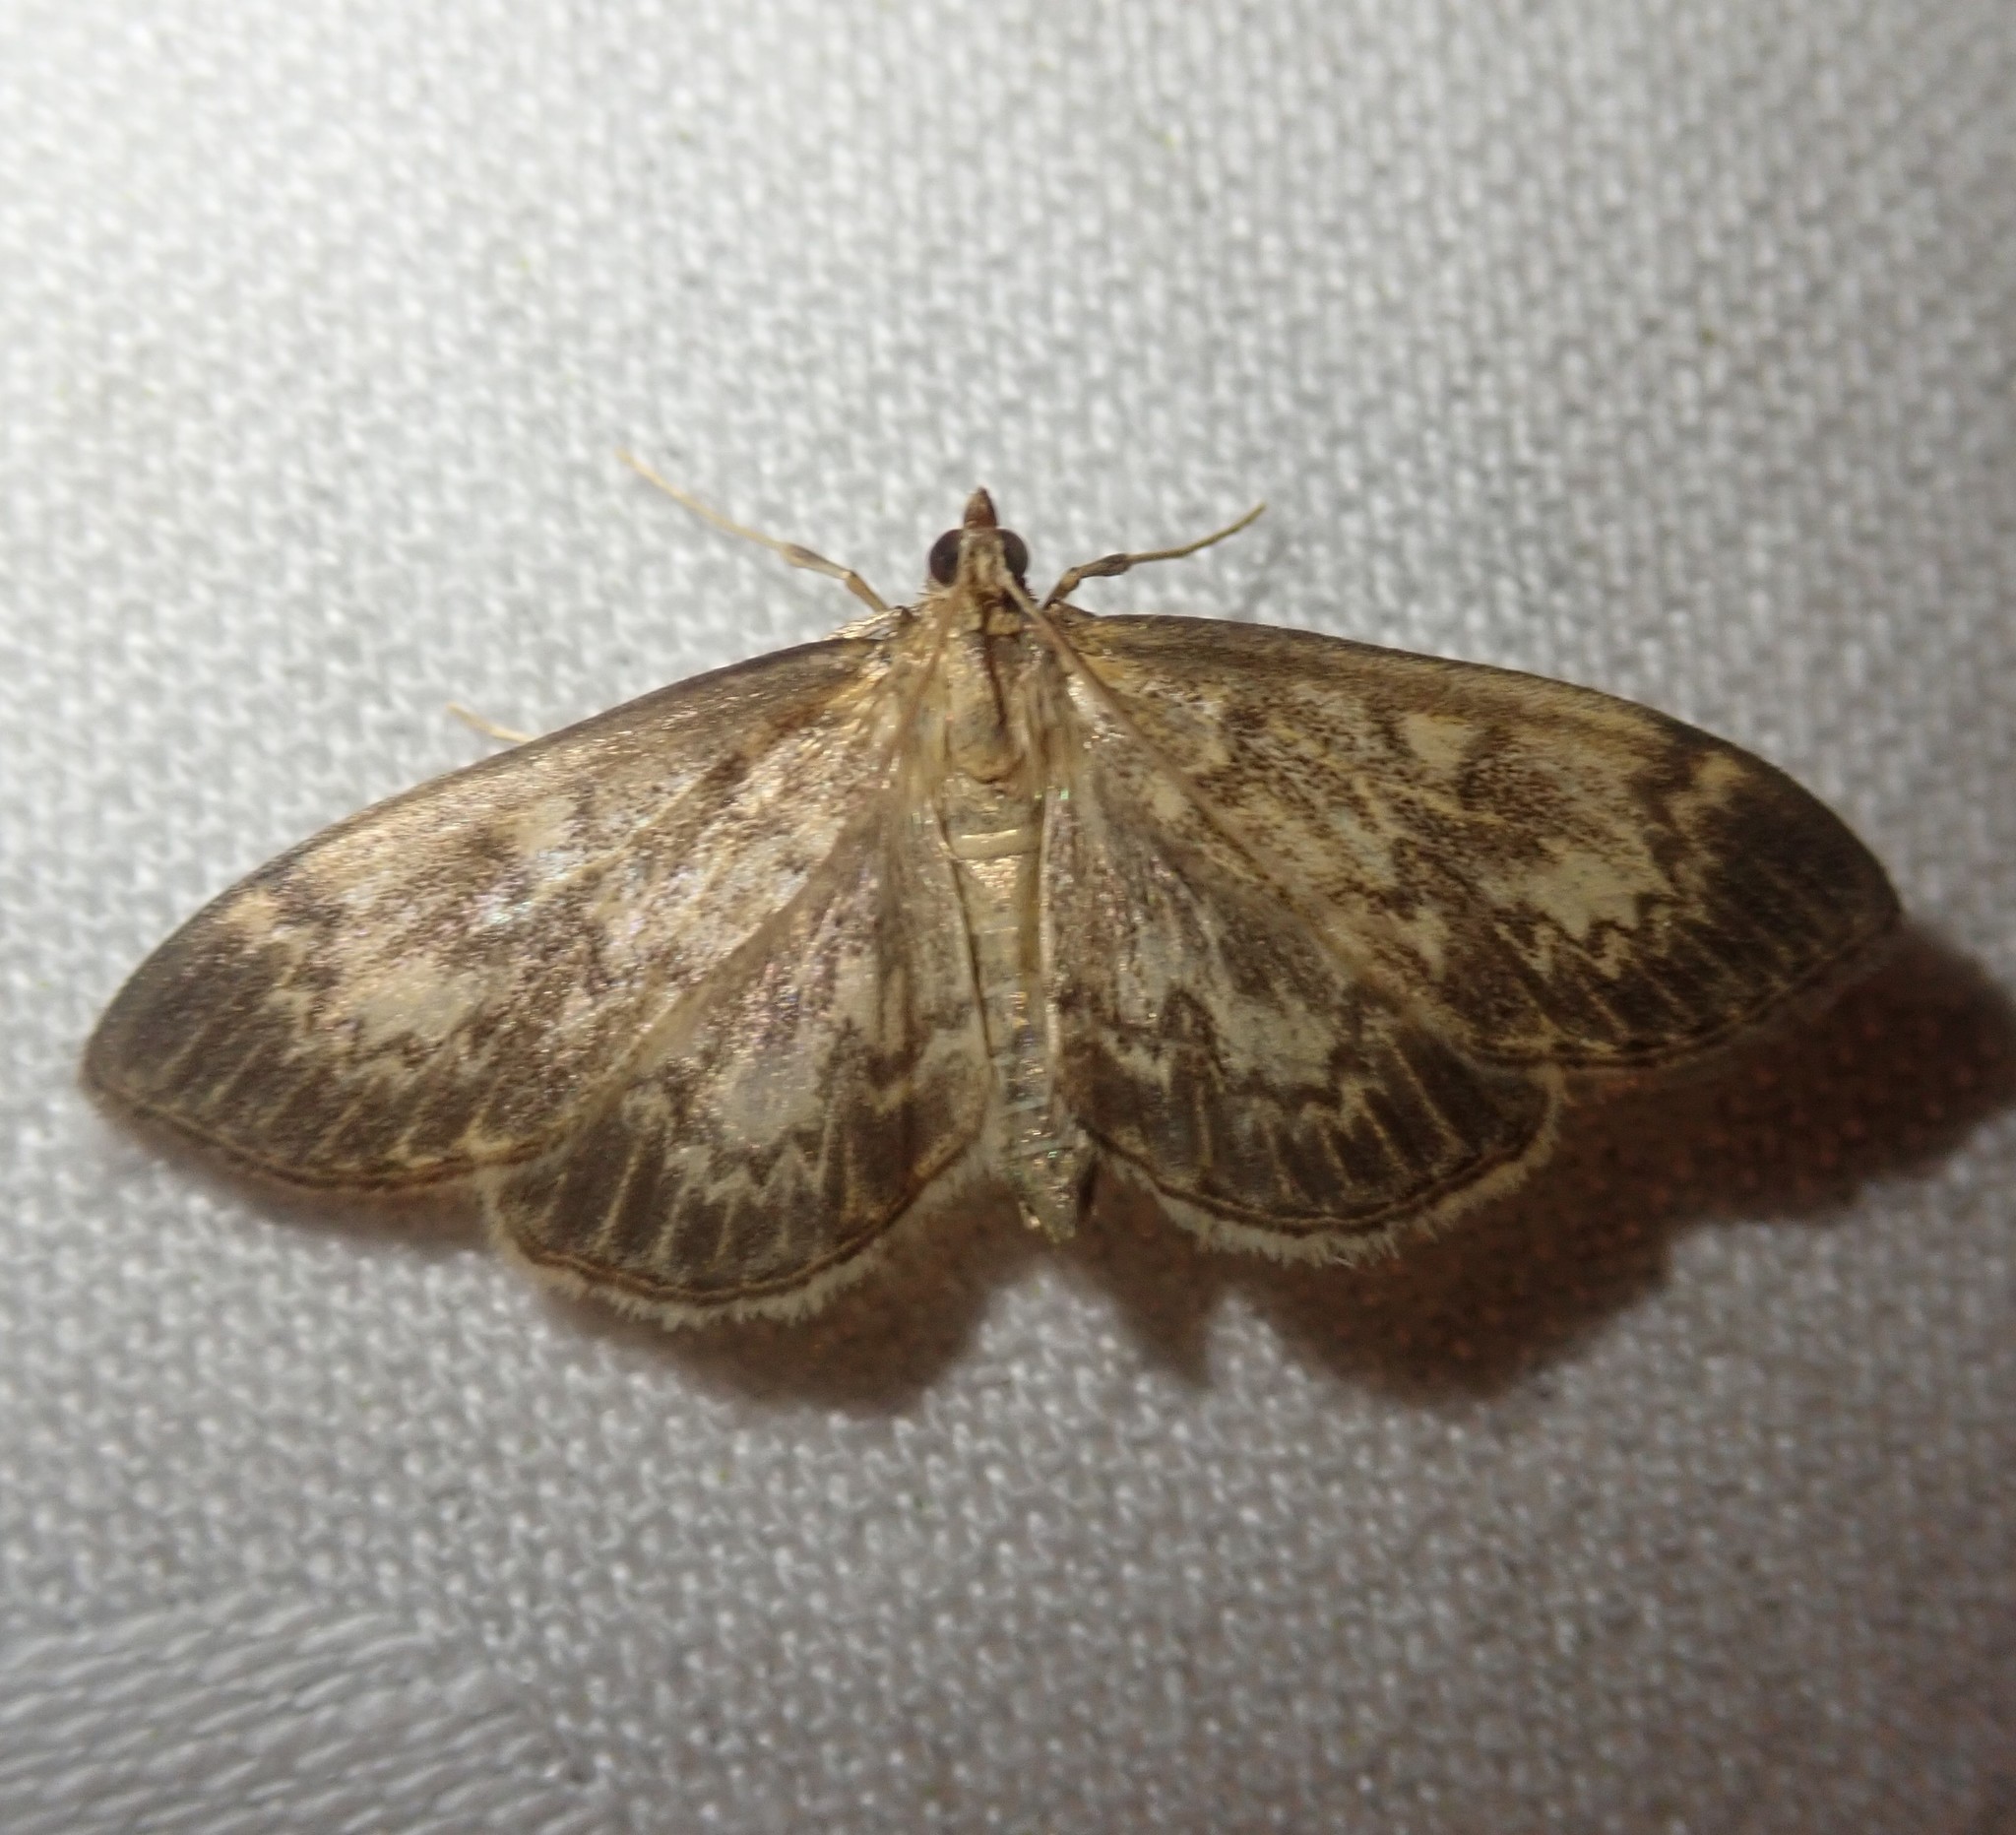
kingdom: Animalia
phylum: Arthropoda
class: Insecta
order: Lepidoptera
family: Crambidae
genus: Anania
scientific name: Anania lancealis
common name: Long-winged pearl
